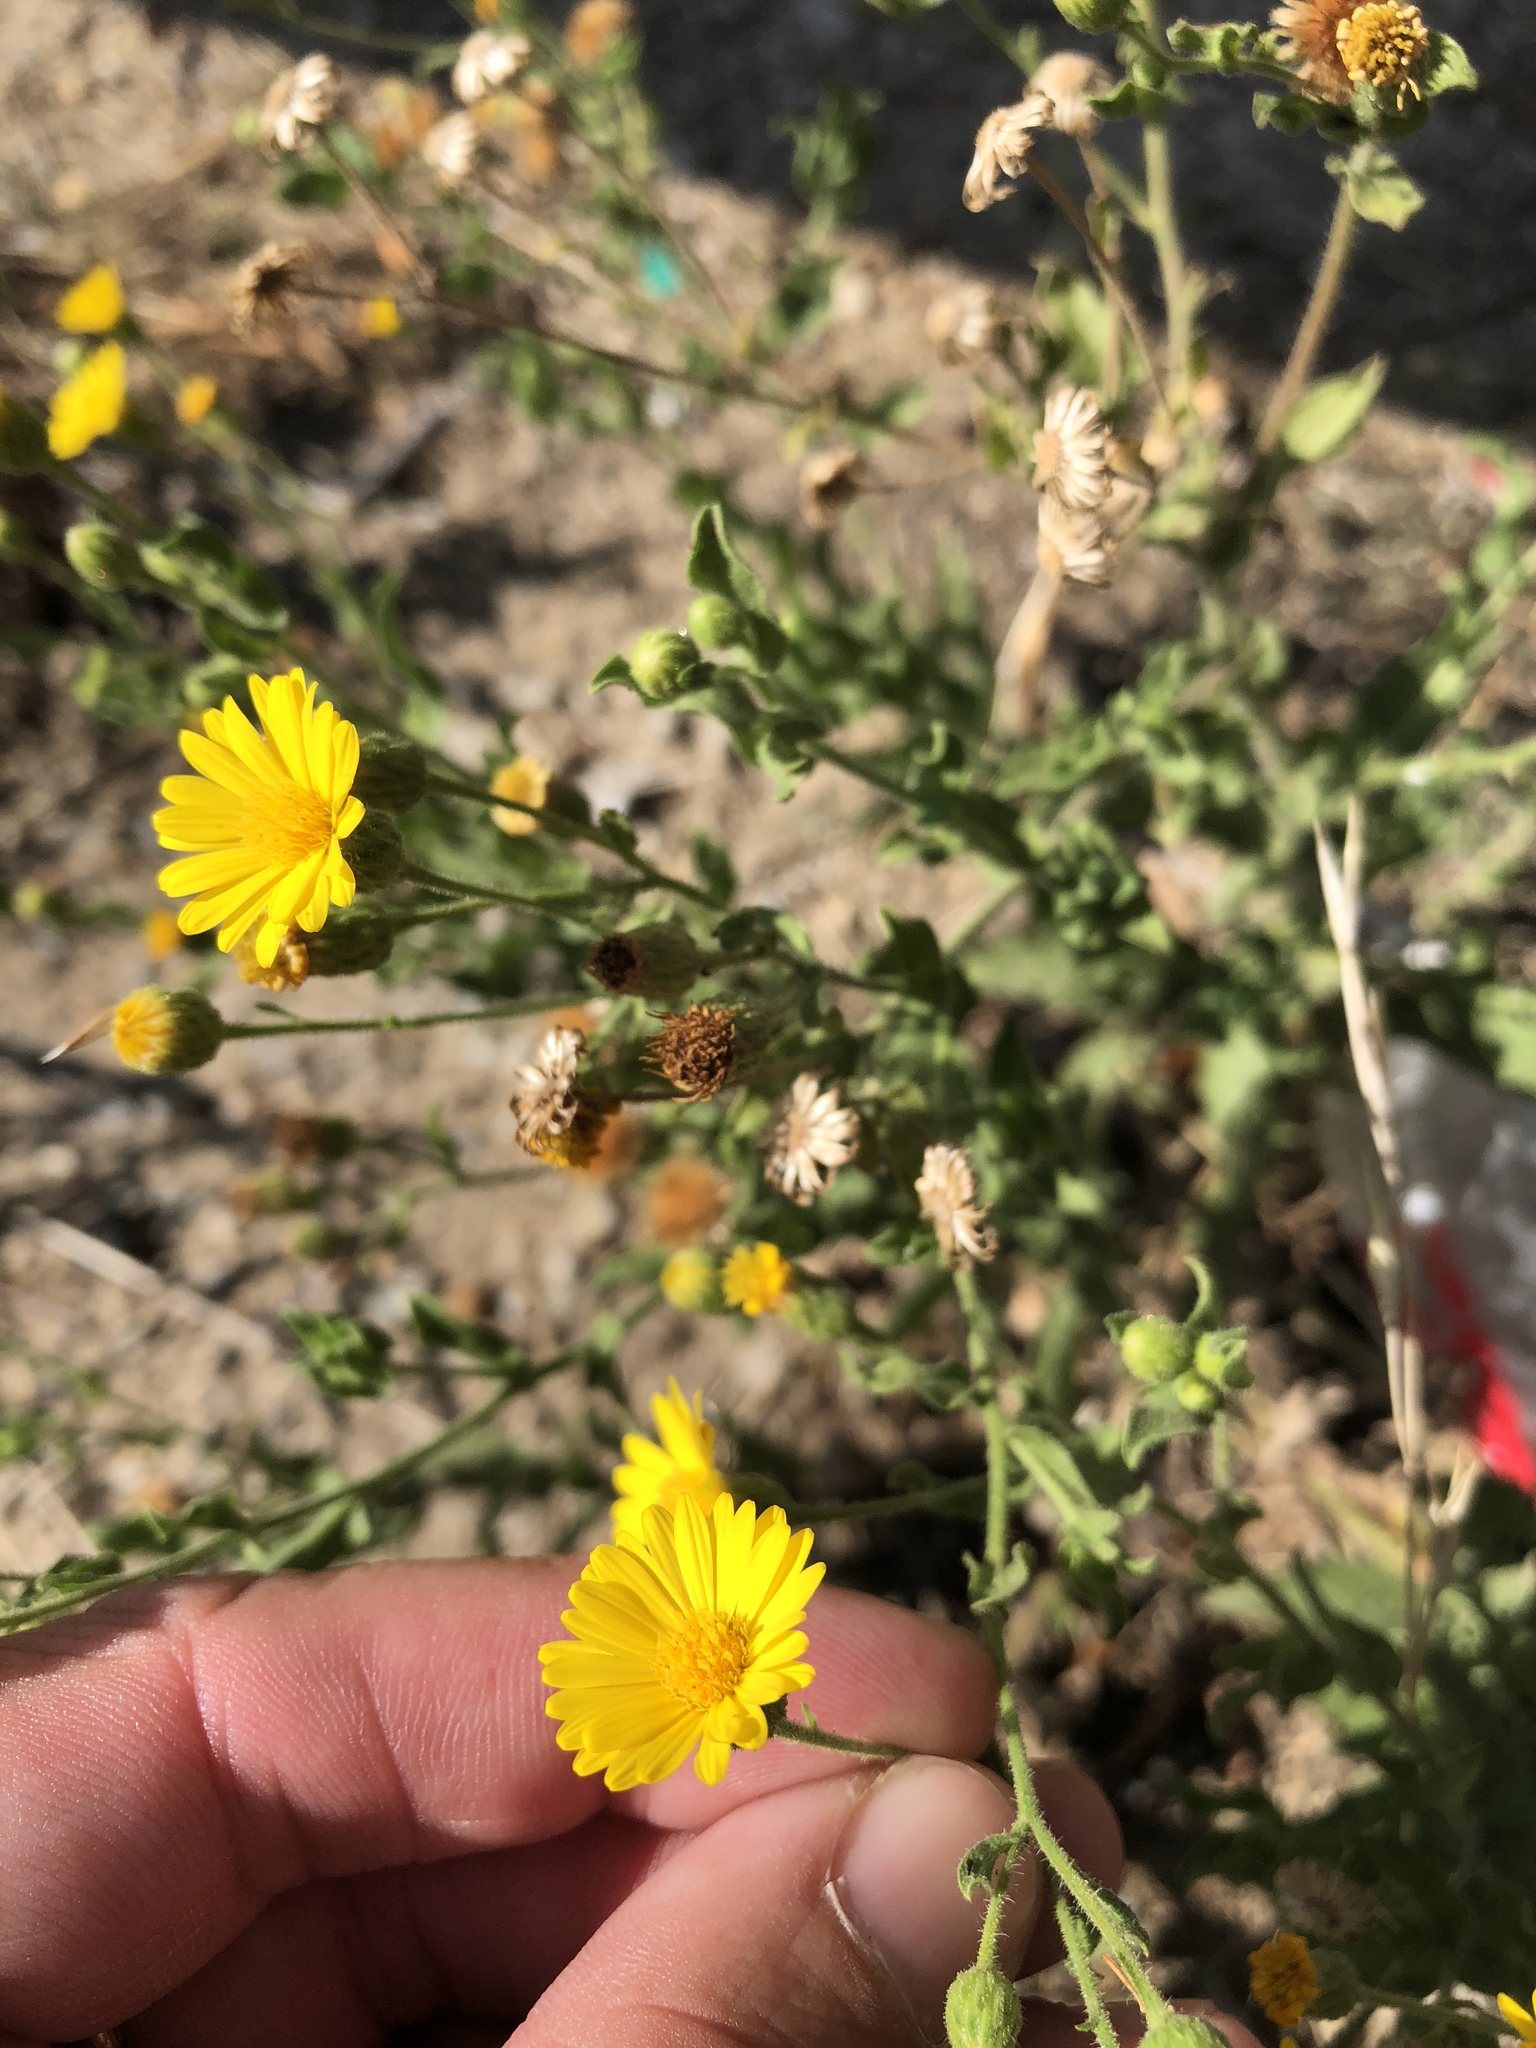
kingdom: Plantae
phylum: Tracheophyta
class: Magnoliopsida
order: Asterales
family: Asteraceae
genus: Heterotheca
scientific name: Heterotheca subaxillaris
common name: Camphorweed
